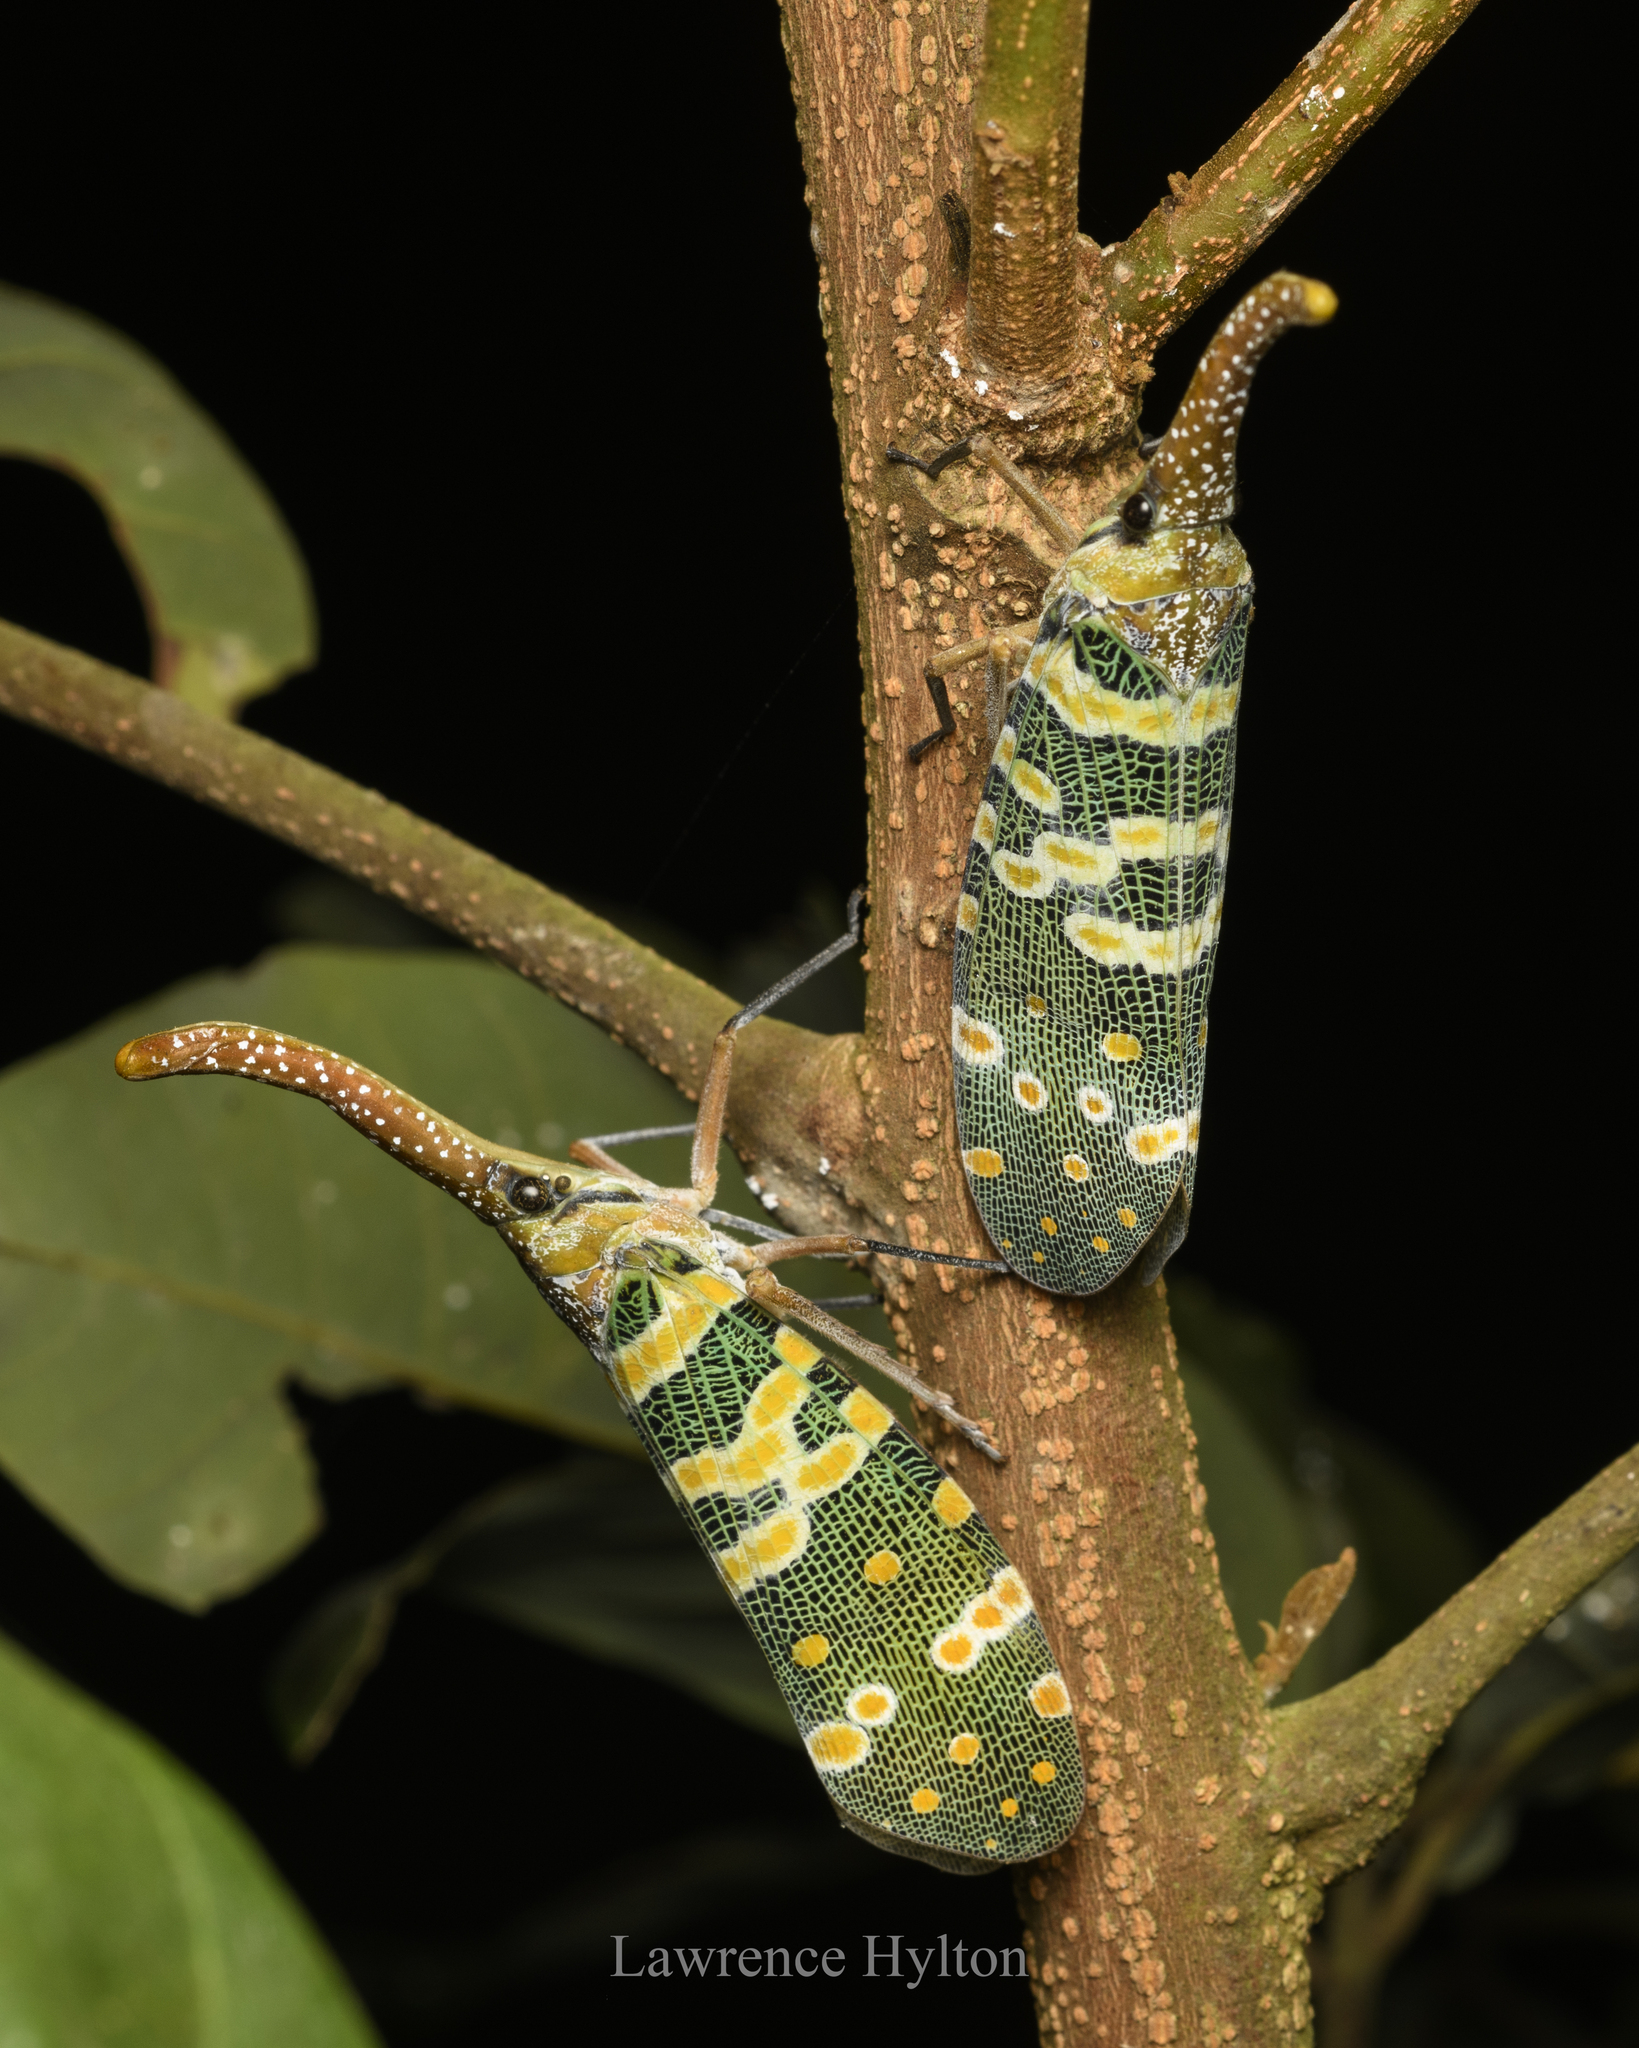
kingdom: Animalia
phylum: Arthropoda
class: Insecta
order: Hemiptera
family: Fulgoridae
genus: Pyrops
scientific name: Pyrops candelaria
